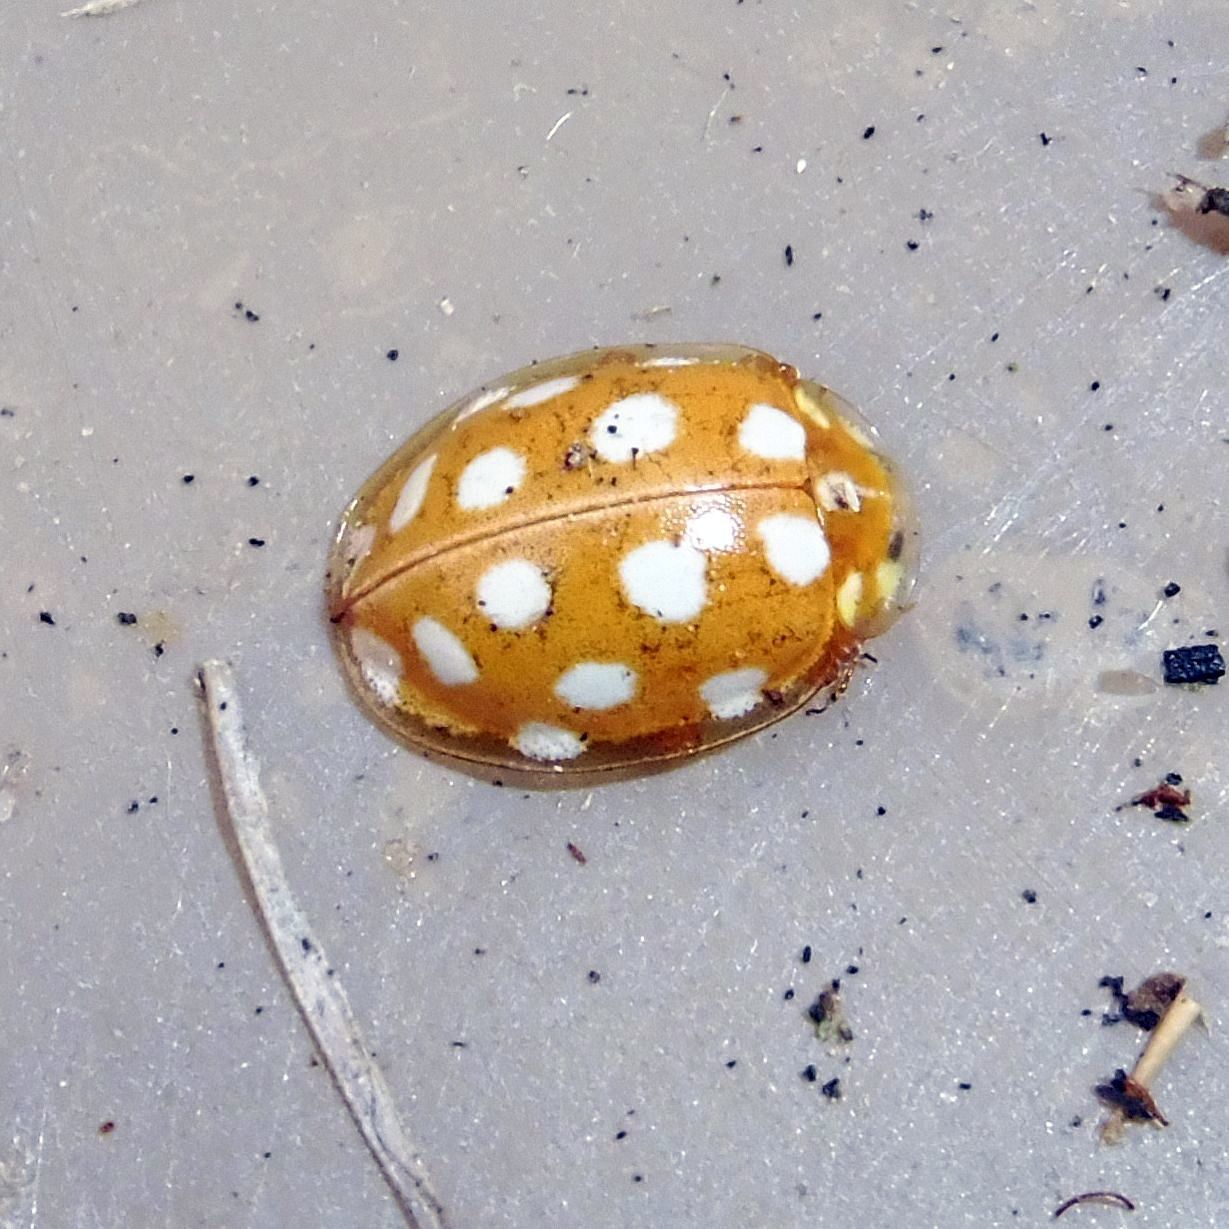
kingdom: Animalia
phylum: Arthropoda
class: Insecta
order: Coleoptera
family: Coccinellidae
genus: Halyzia
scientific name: Halyzia sedecimguttata
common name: Orange ladybird
